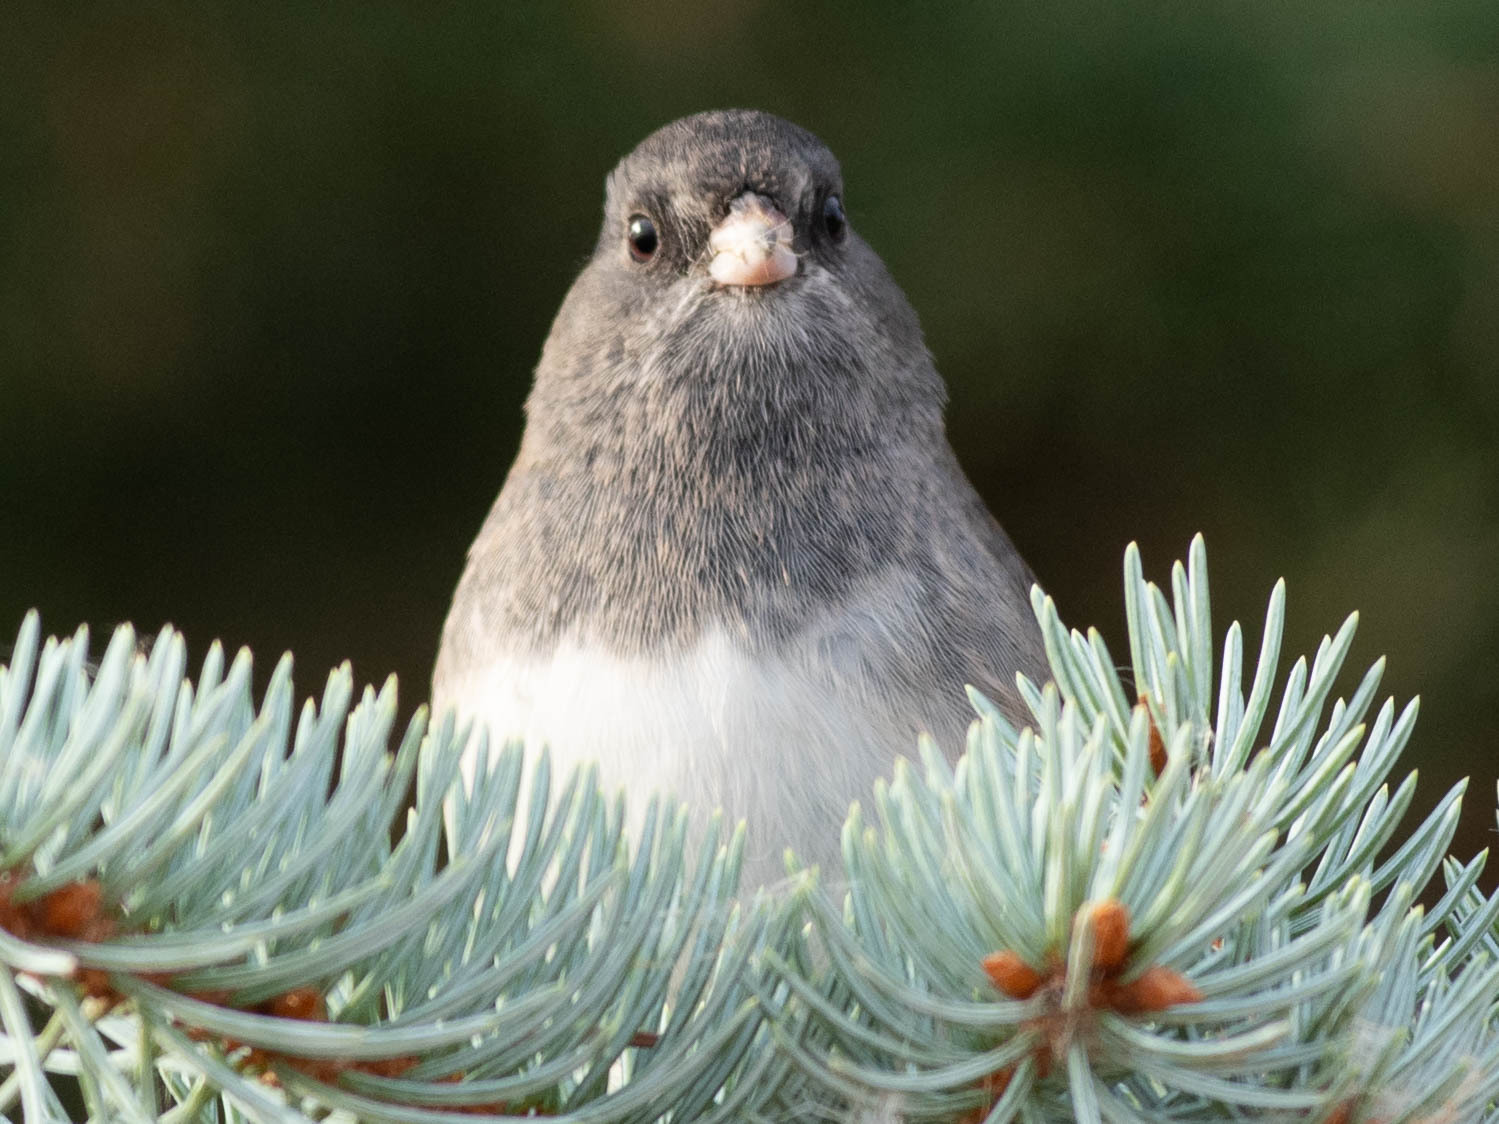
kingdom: Animalia
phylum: Chordata
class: Aves
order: Passeriformes
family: Passerellidae
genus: Junco
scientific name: Junco hyemalis
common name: Dark-eyed junco
